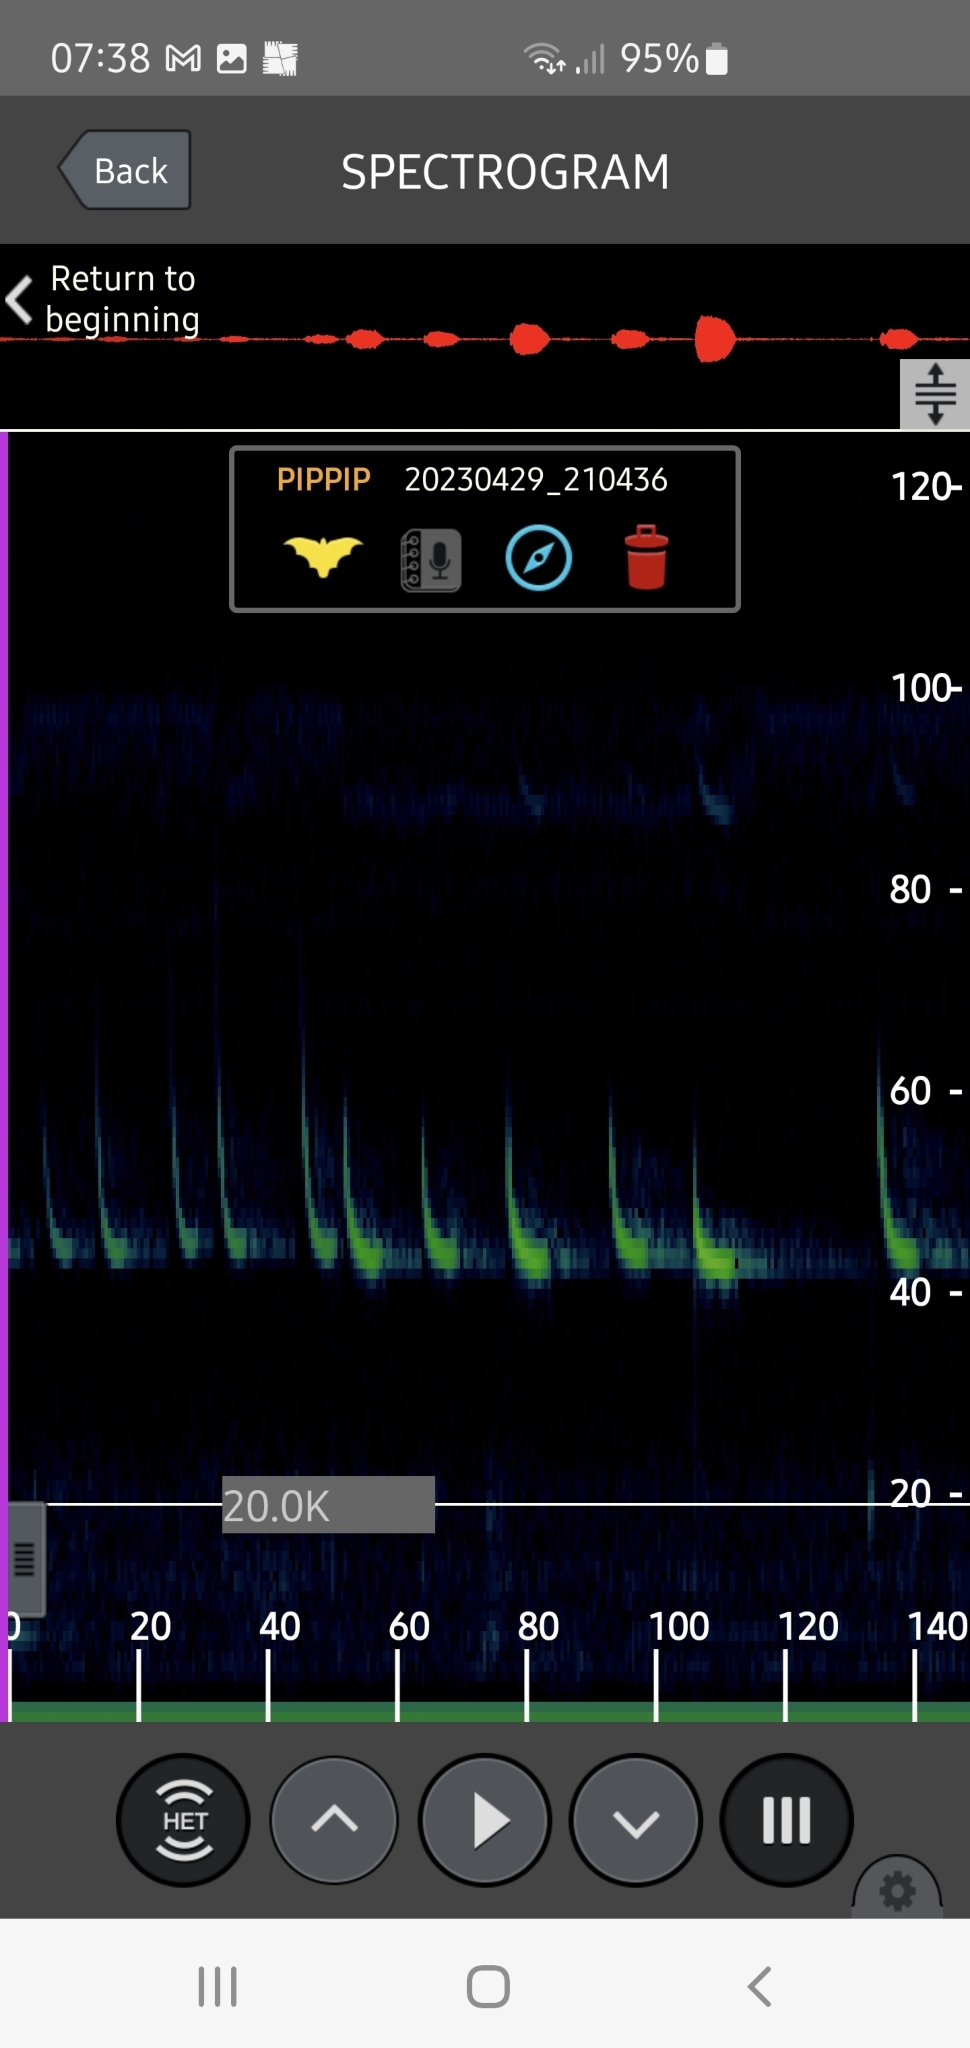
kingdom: Animalia
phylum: Chordata
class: Mammalia
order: Chiroptera
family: Vespertilionidae
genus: Pipistrellus
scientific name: Pipistrellus pipistrellus
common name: Common pipistrelle
